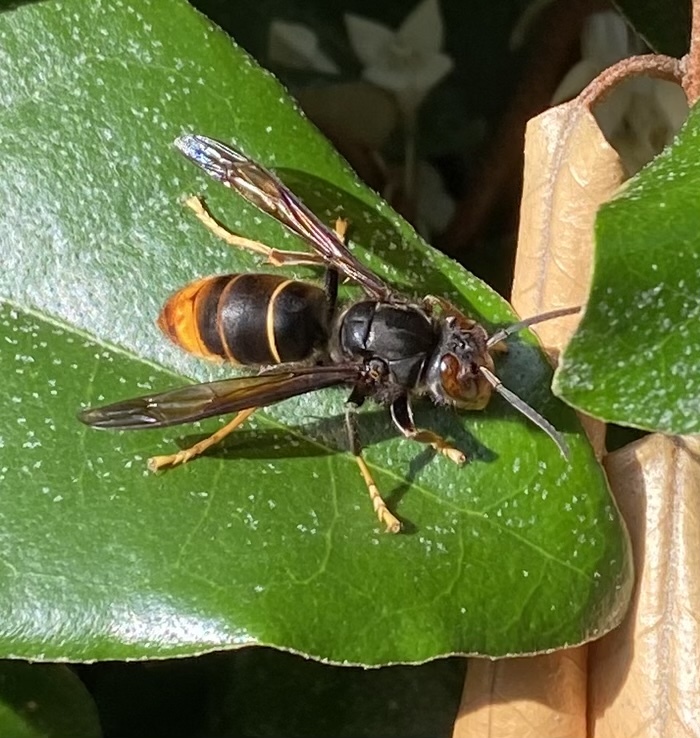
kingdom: Animalia
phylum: Arthropoda
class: Insecta
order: Hymenoptera
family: Vespidae
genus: Vespa
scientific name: Vespa velutina
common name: Asian hornet
